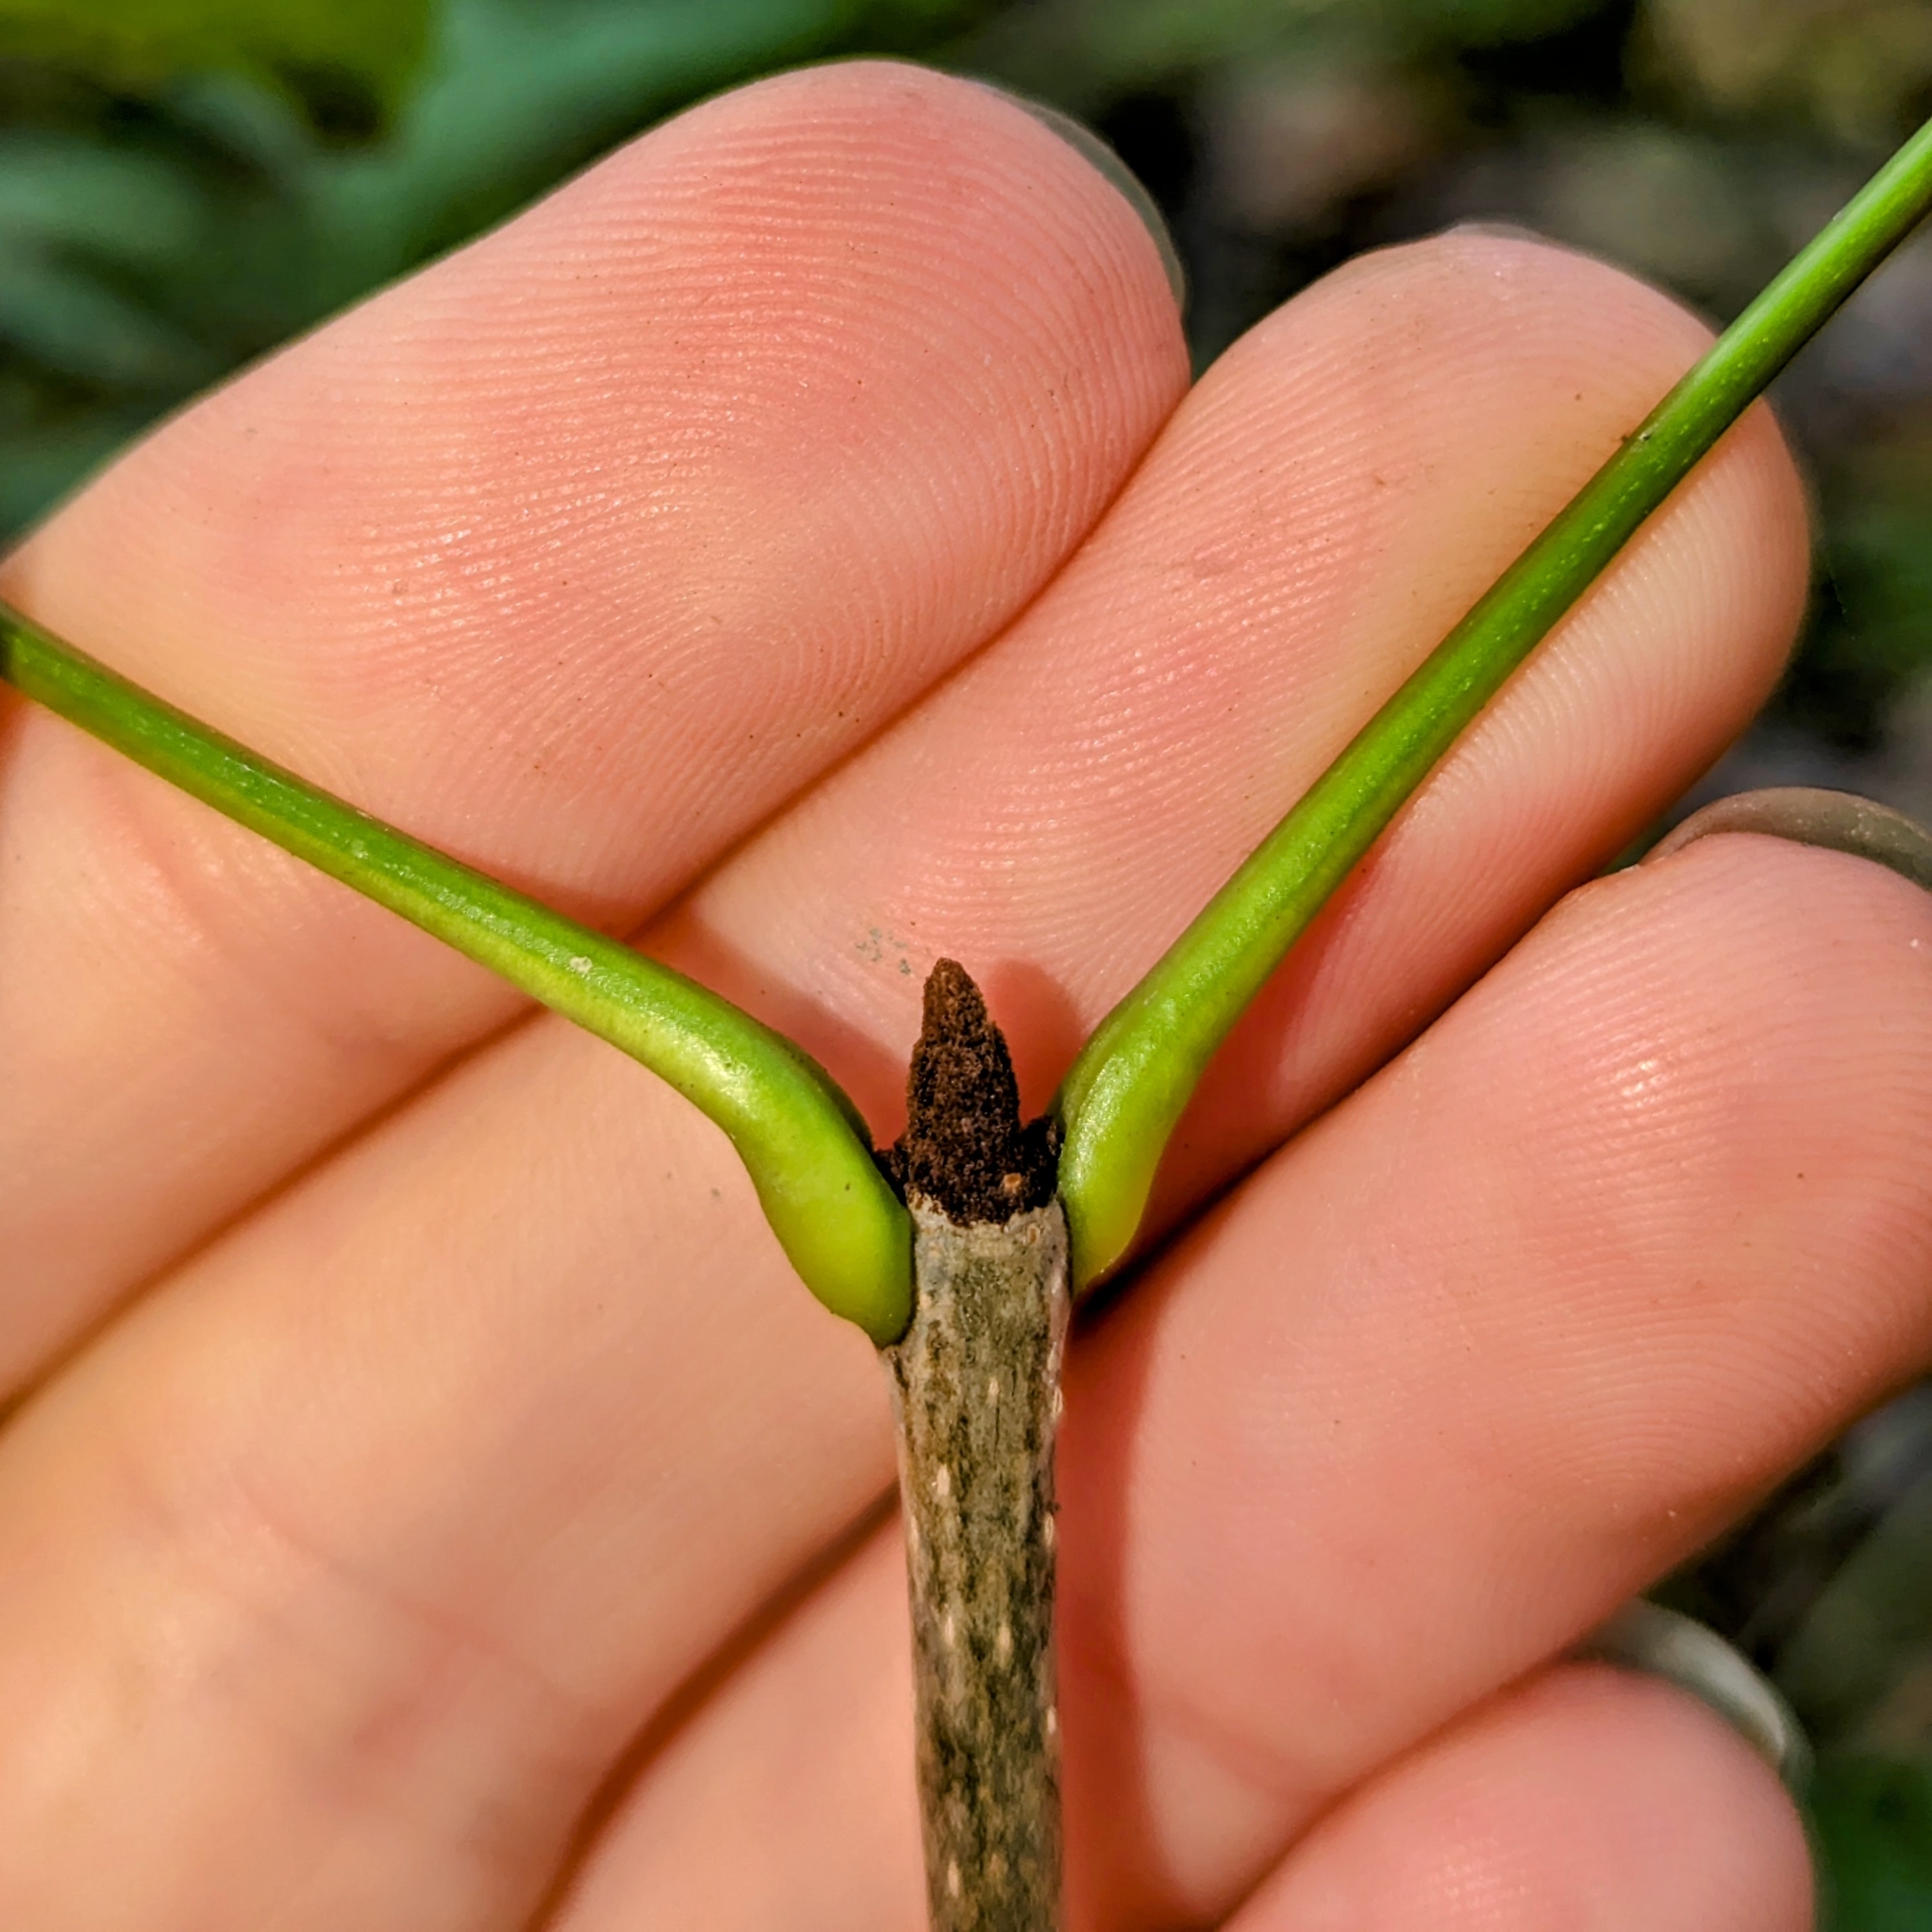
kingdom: Plantae
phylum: Tracheophyta
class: Magnoliopsida
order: Lamiales
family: Oleaceae
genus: Fraxinus
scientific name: Fraxinus pennsylvanica
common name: Green ash
